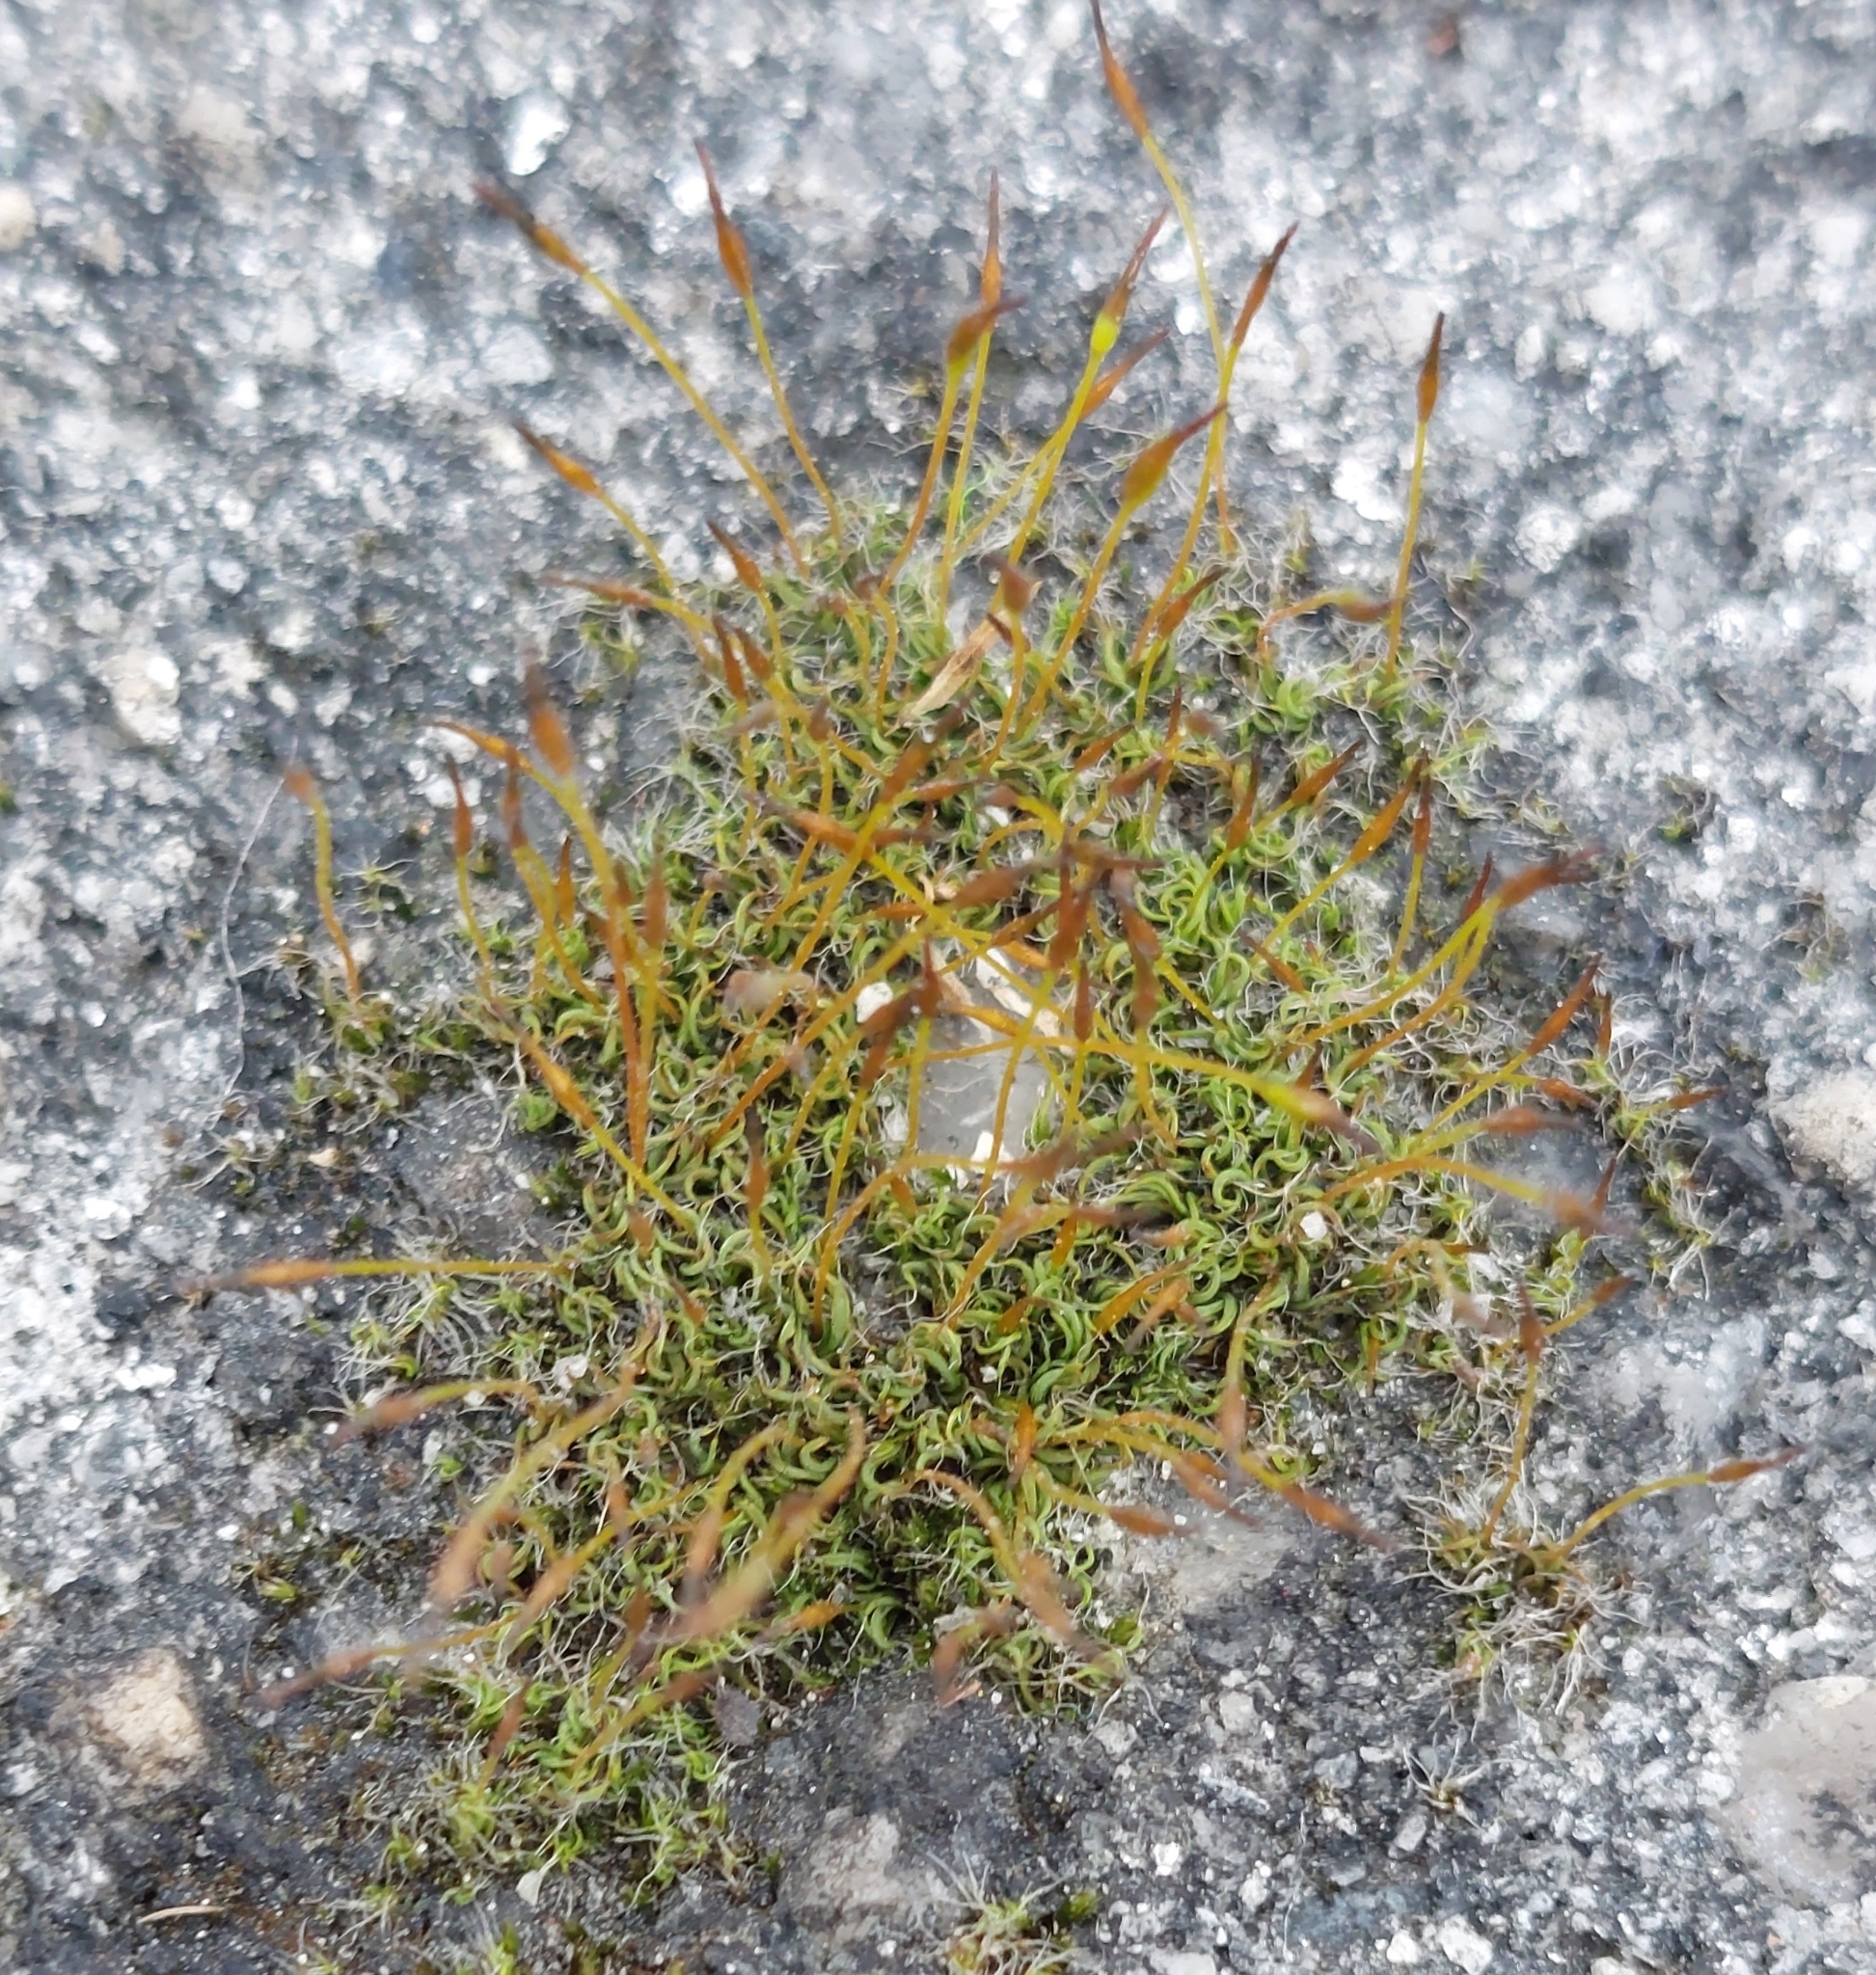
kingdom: Plantae
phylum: Bryophyta
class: Bryopsida
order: Pottiales
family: Pottiaceae
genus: Tortula
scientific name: Tortula muralis
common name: Wall screw-moss
